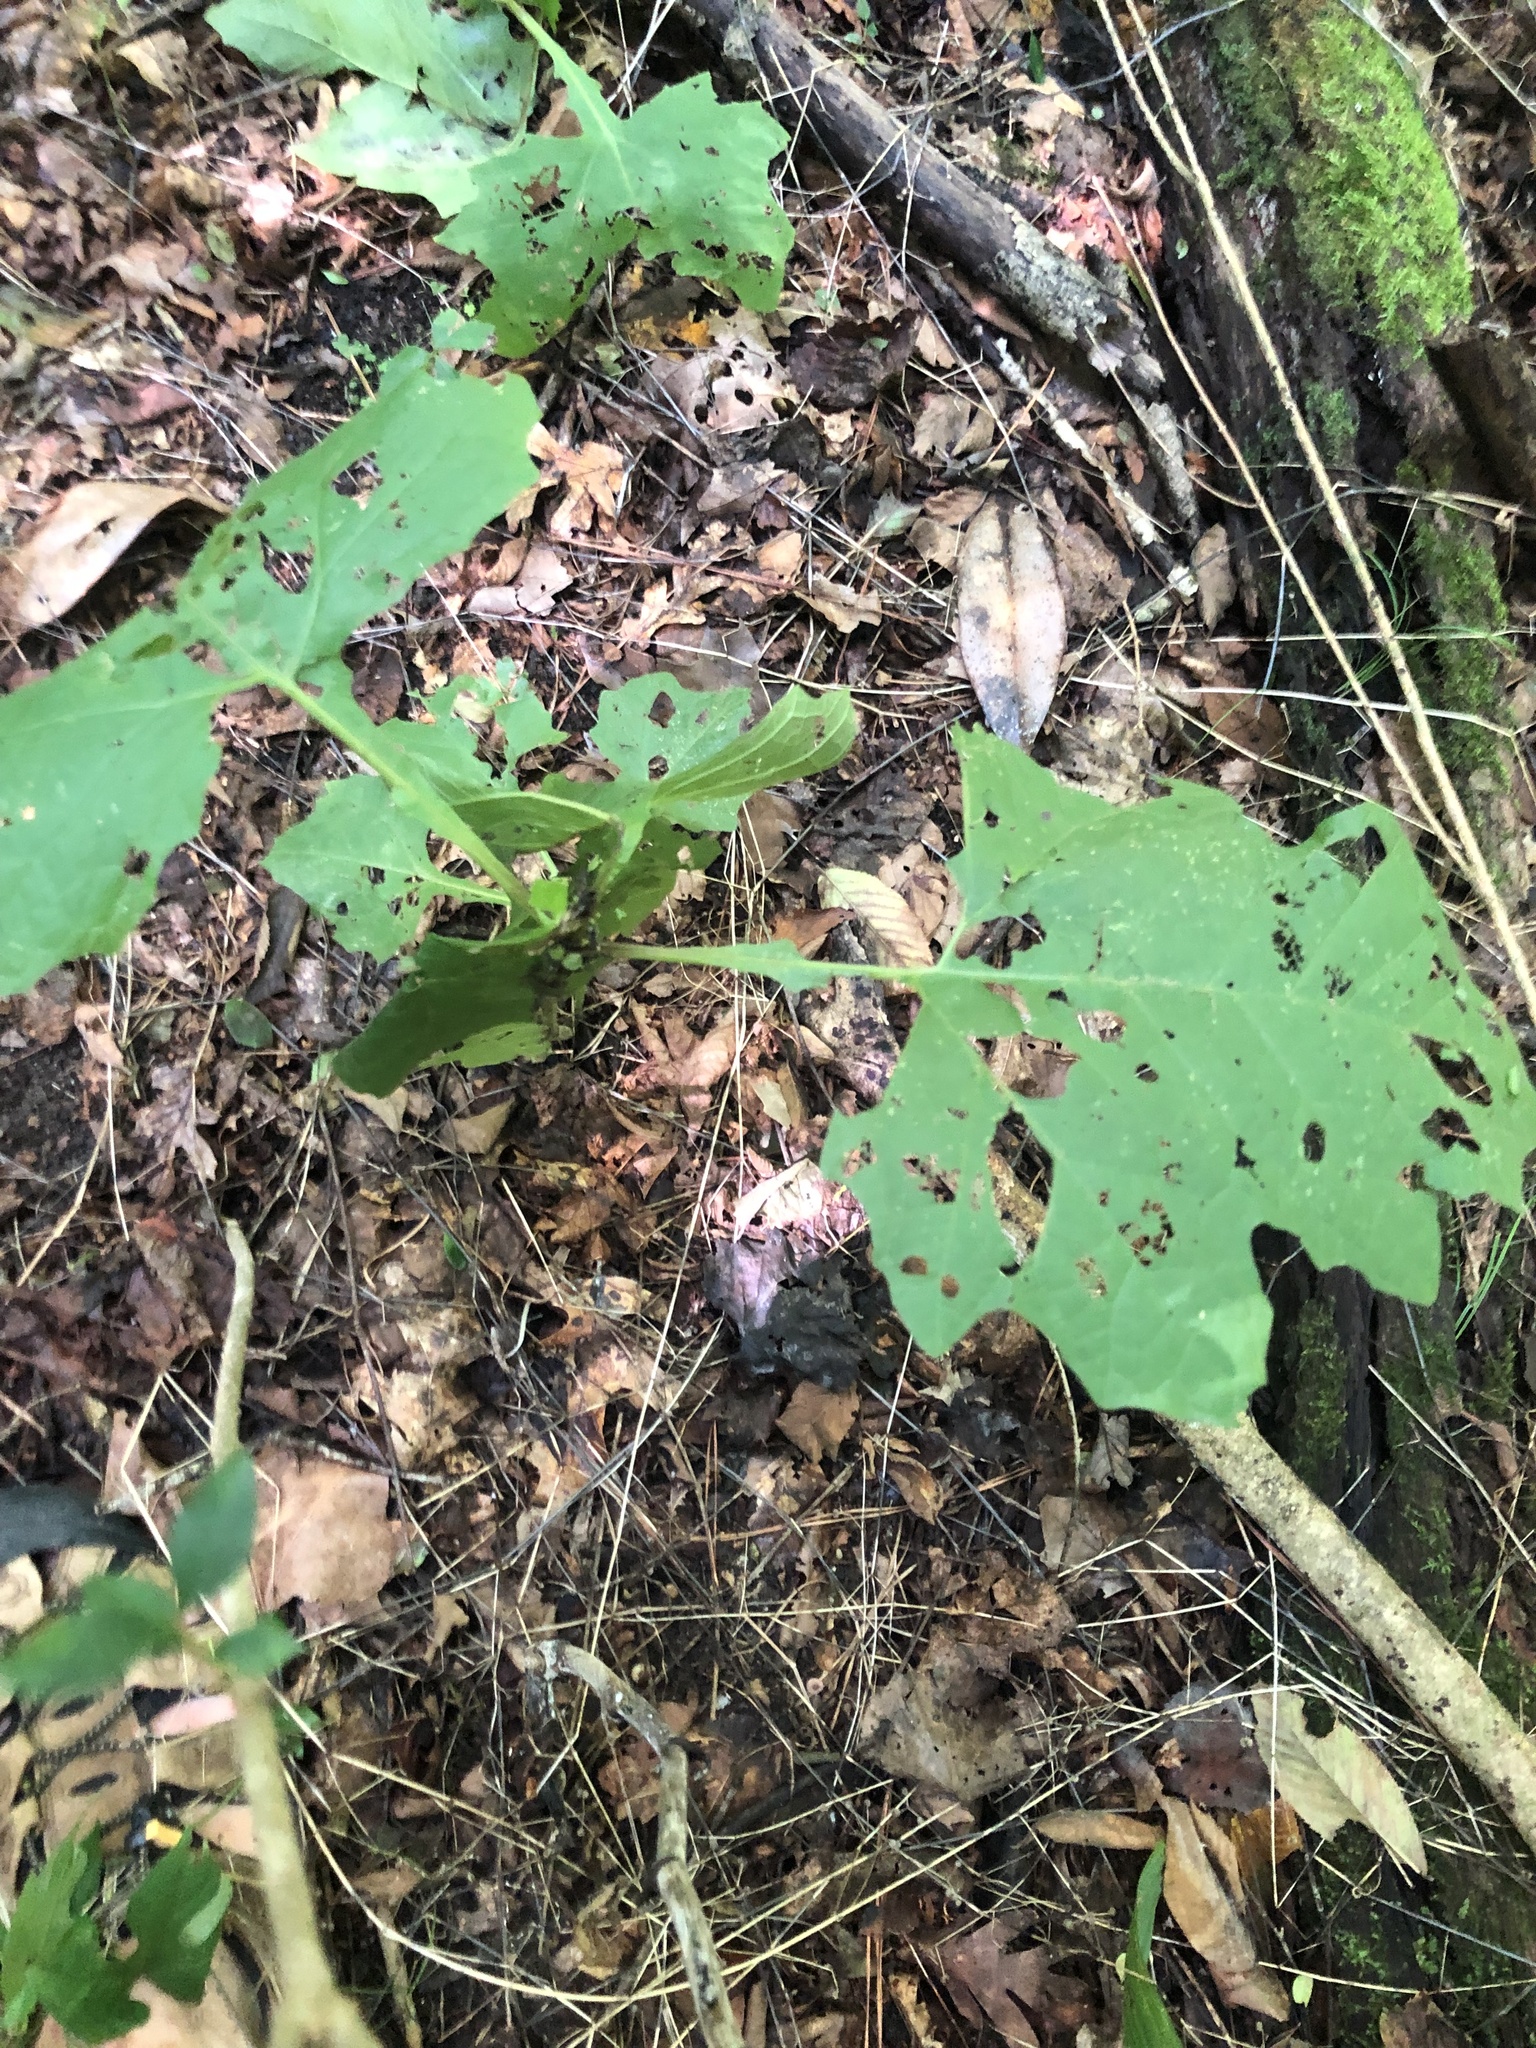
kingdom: Plantae
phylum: Tracheophyta
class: Magnoliopsida
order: Asterales
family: Asteraceae
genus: Smallanthus
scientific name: Smallanthus uvedalia
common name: Bear's-foot
